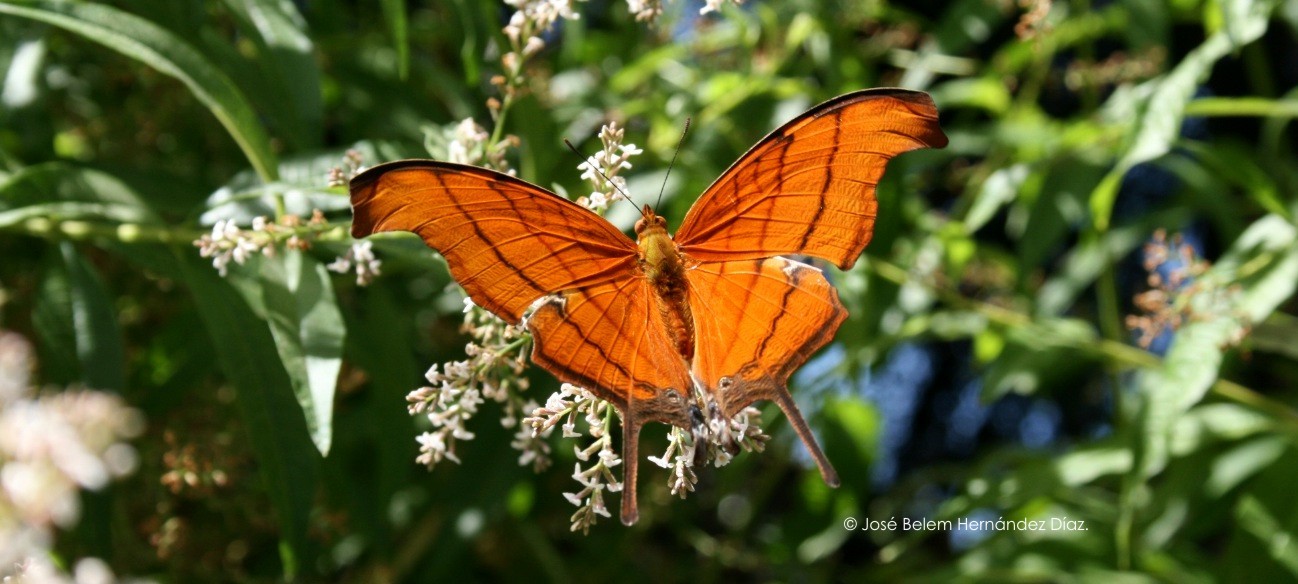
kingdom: Animalia
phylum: Arthropoda
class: Insecta
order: Lepidoptera
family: Nymphalidae
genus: Marpesia
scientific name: Marpesia petreus
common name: Red dagger wing
